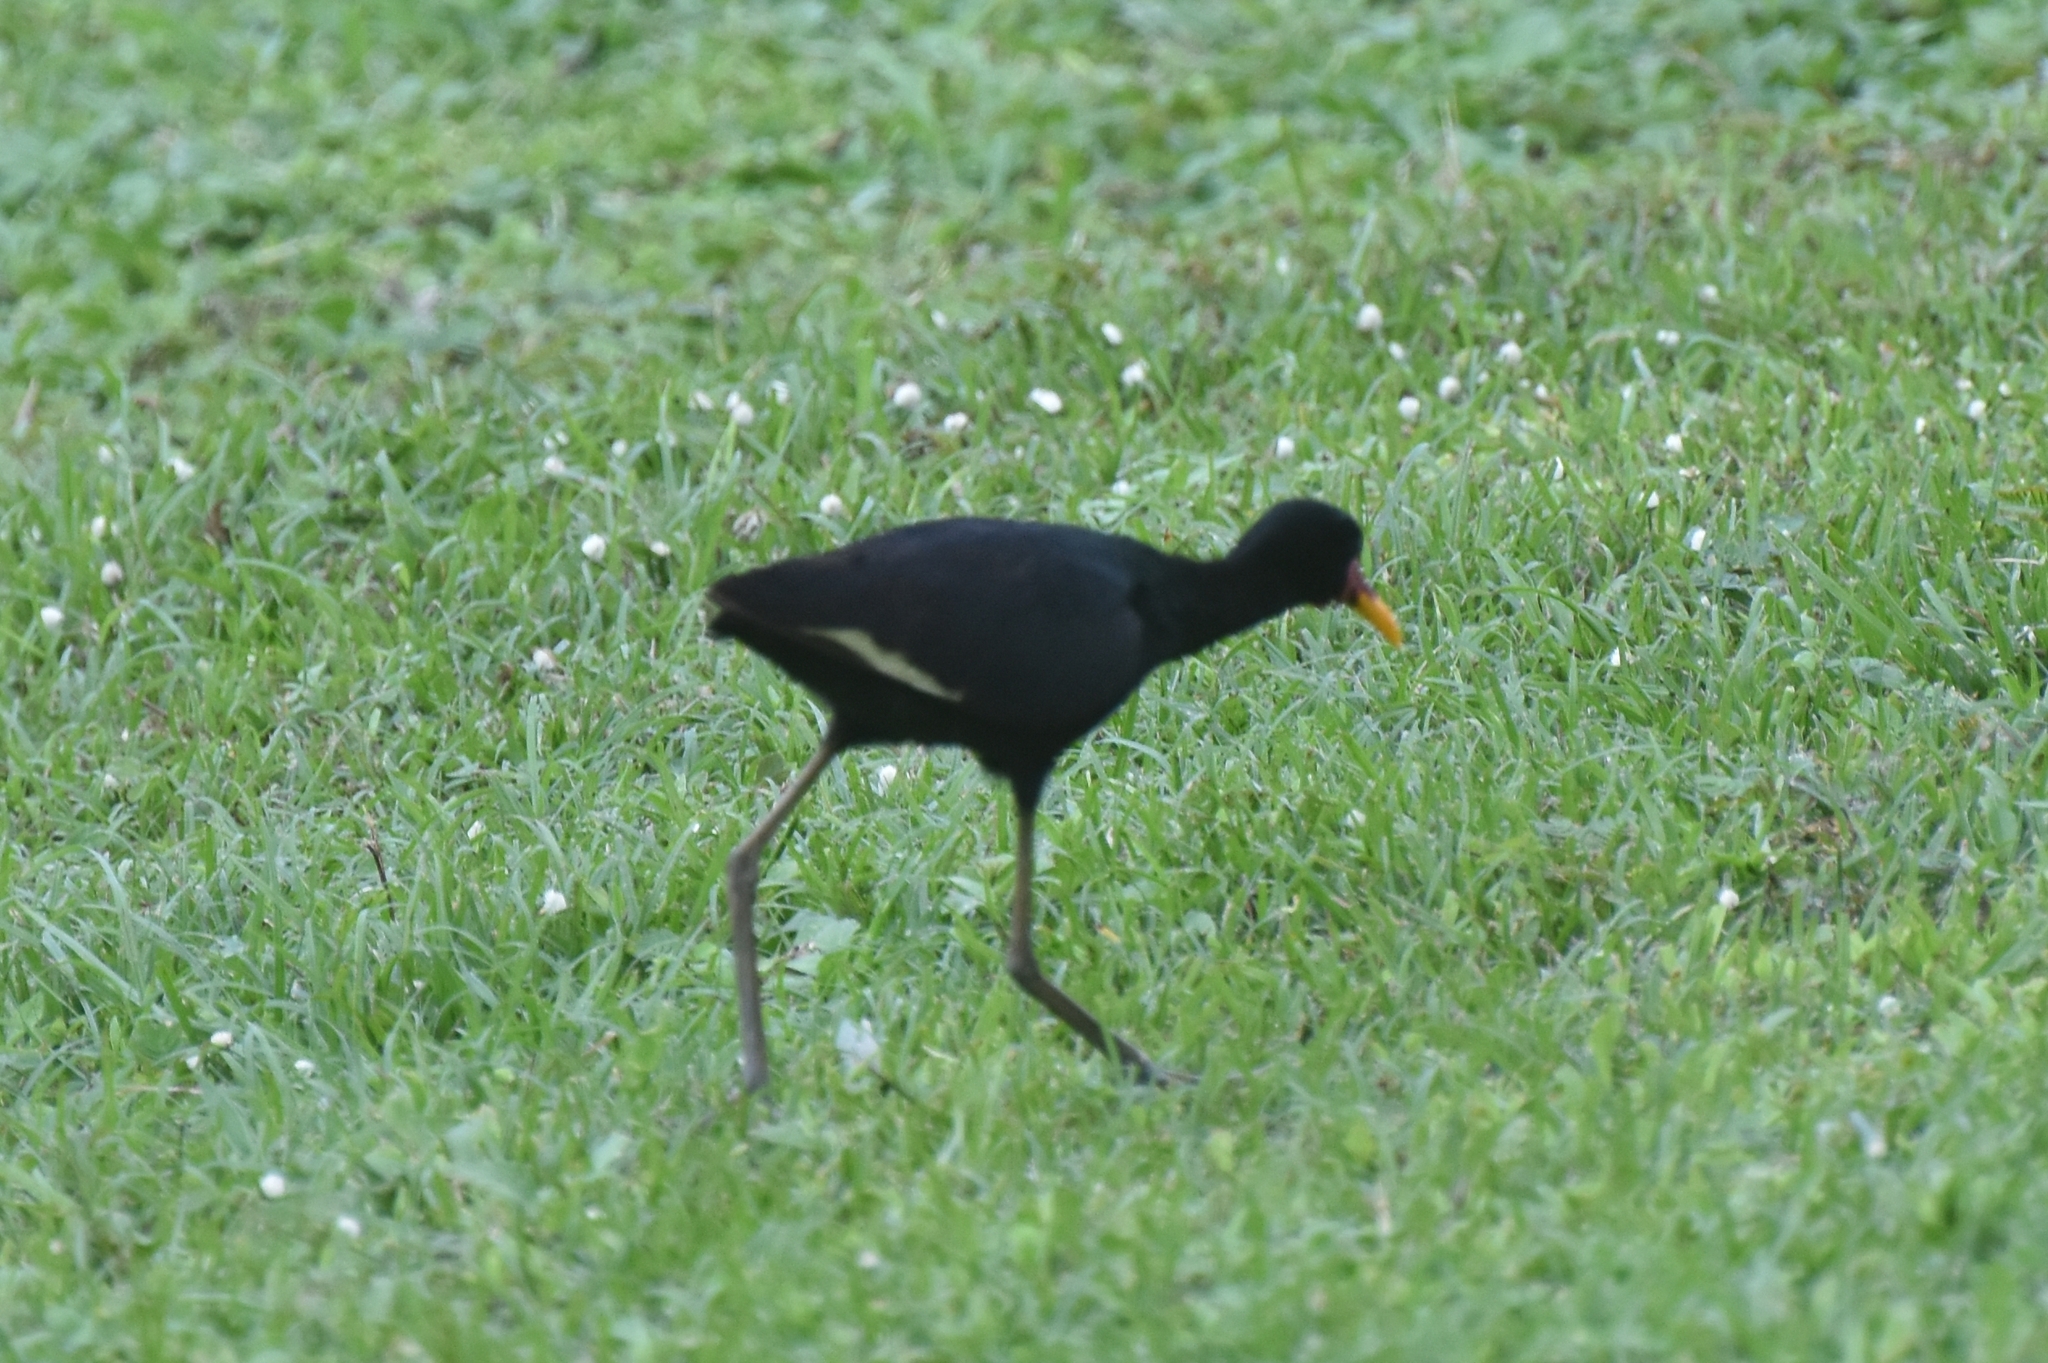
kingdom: Animalia
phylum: Chordata
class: Aves
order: Charadriiformes
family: Jacanidae
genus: Jacana
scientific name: Jacana jacana
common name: Wattled jacana
